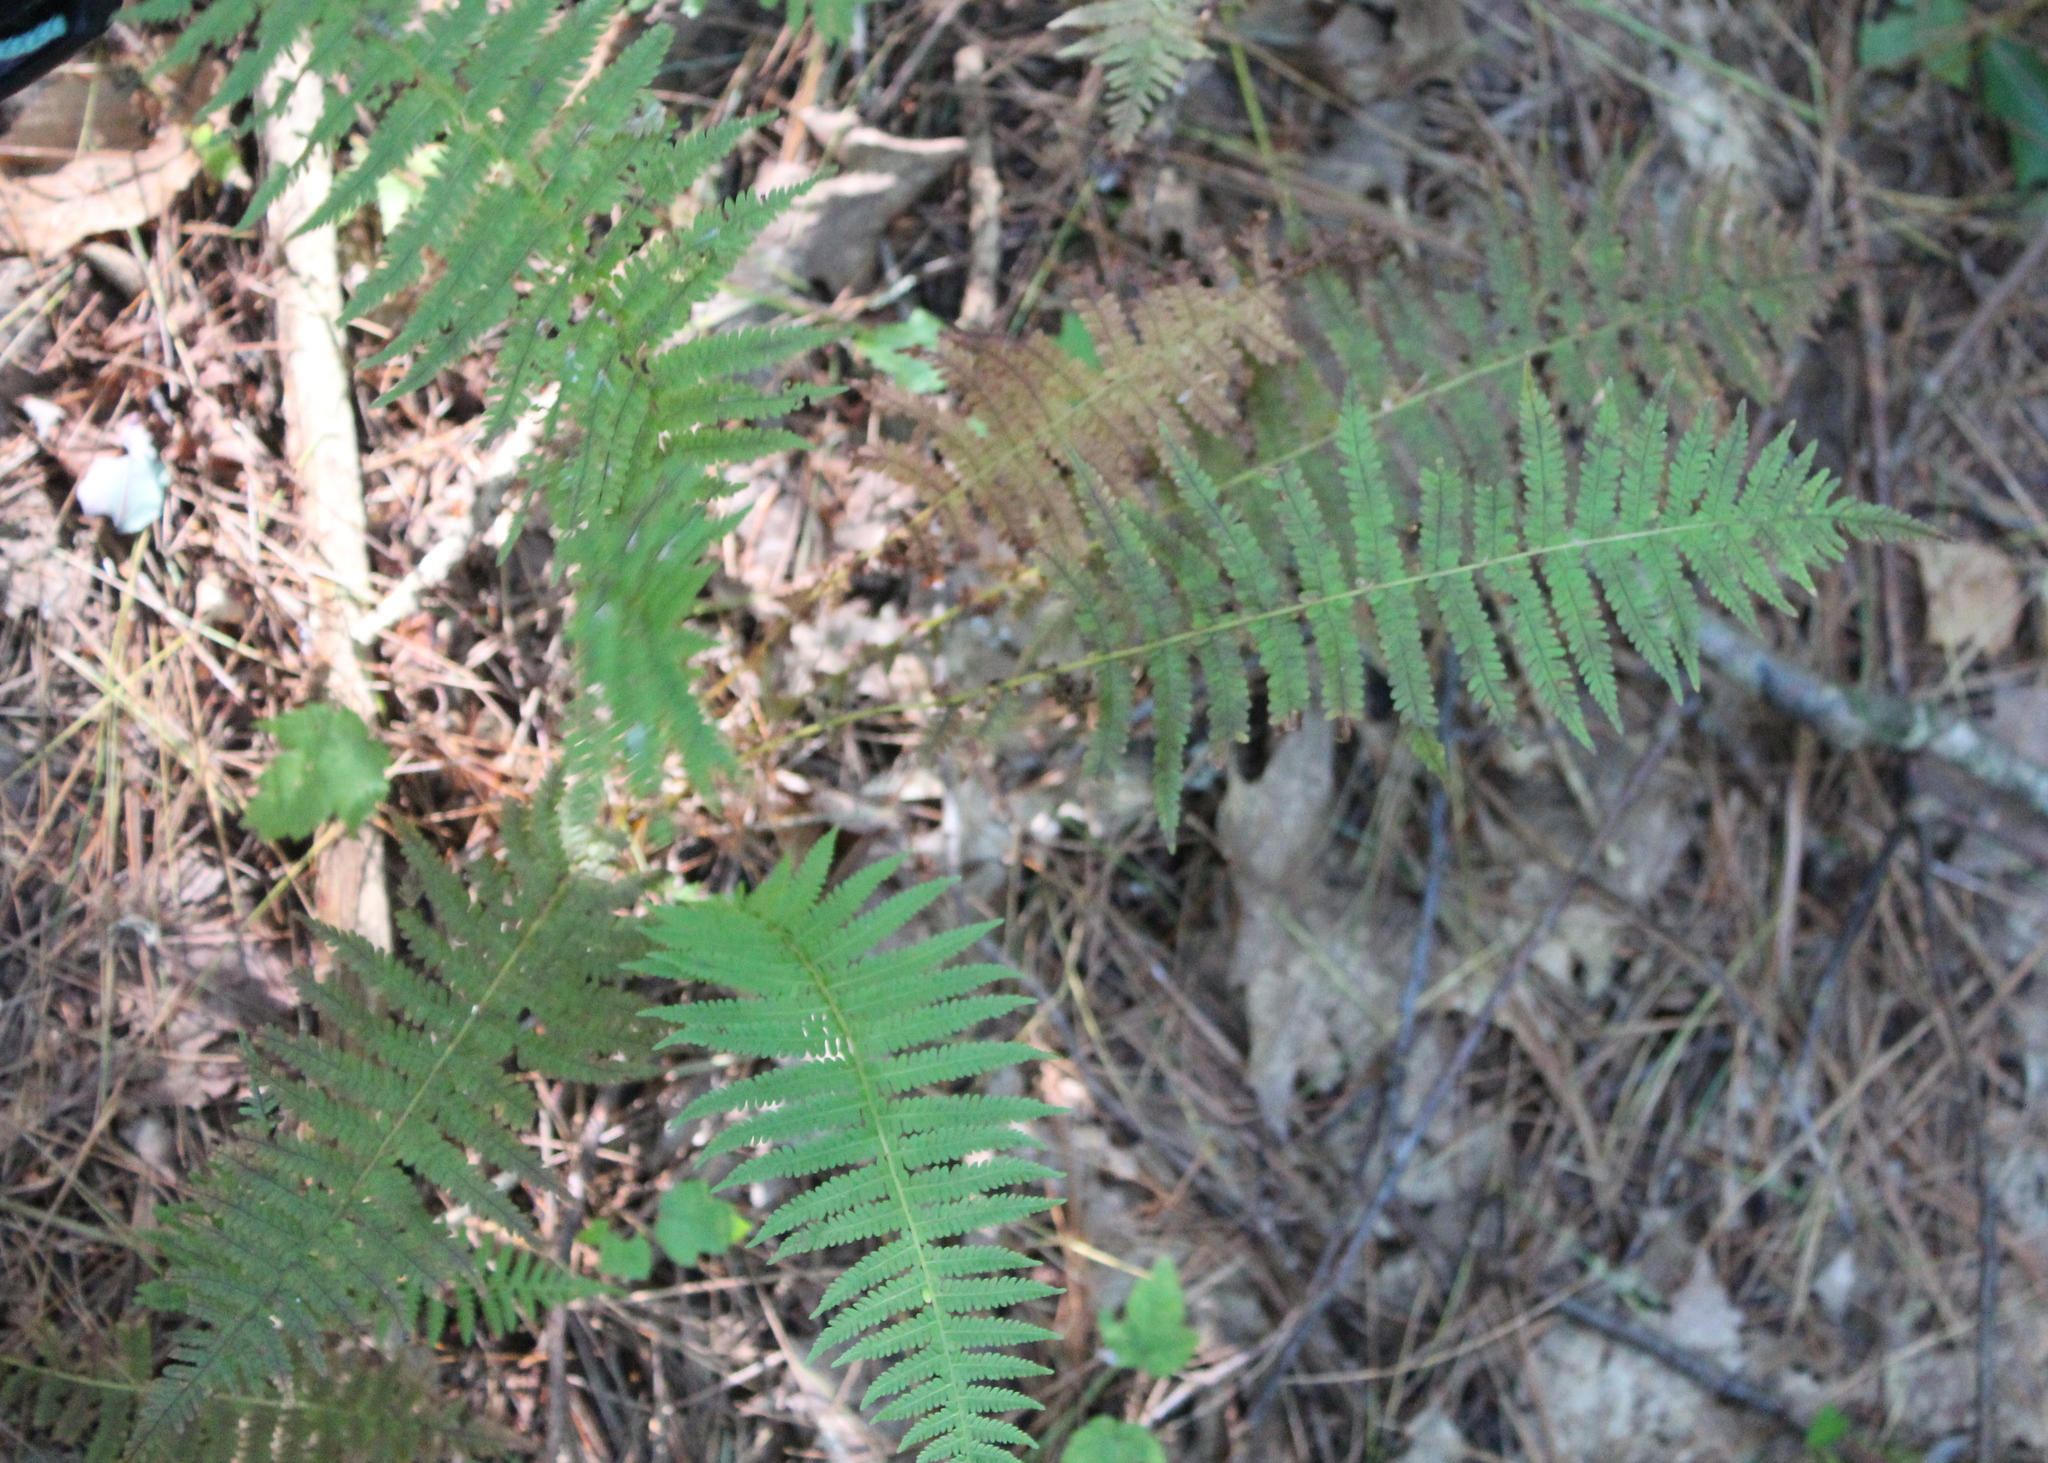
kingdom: Plantae
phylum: Tracheophyta
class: Polypodiopsida
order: Polypodiales
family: Thelypteridaceae
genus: Amauropelta
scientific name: Amauropelta noveboracensis
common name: New york fern
